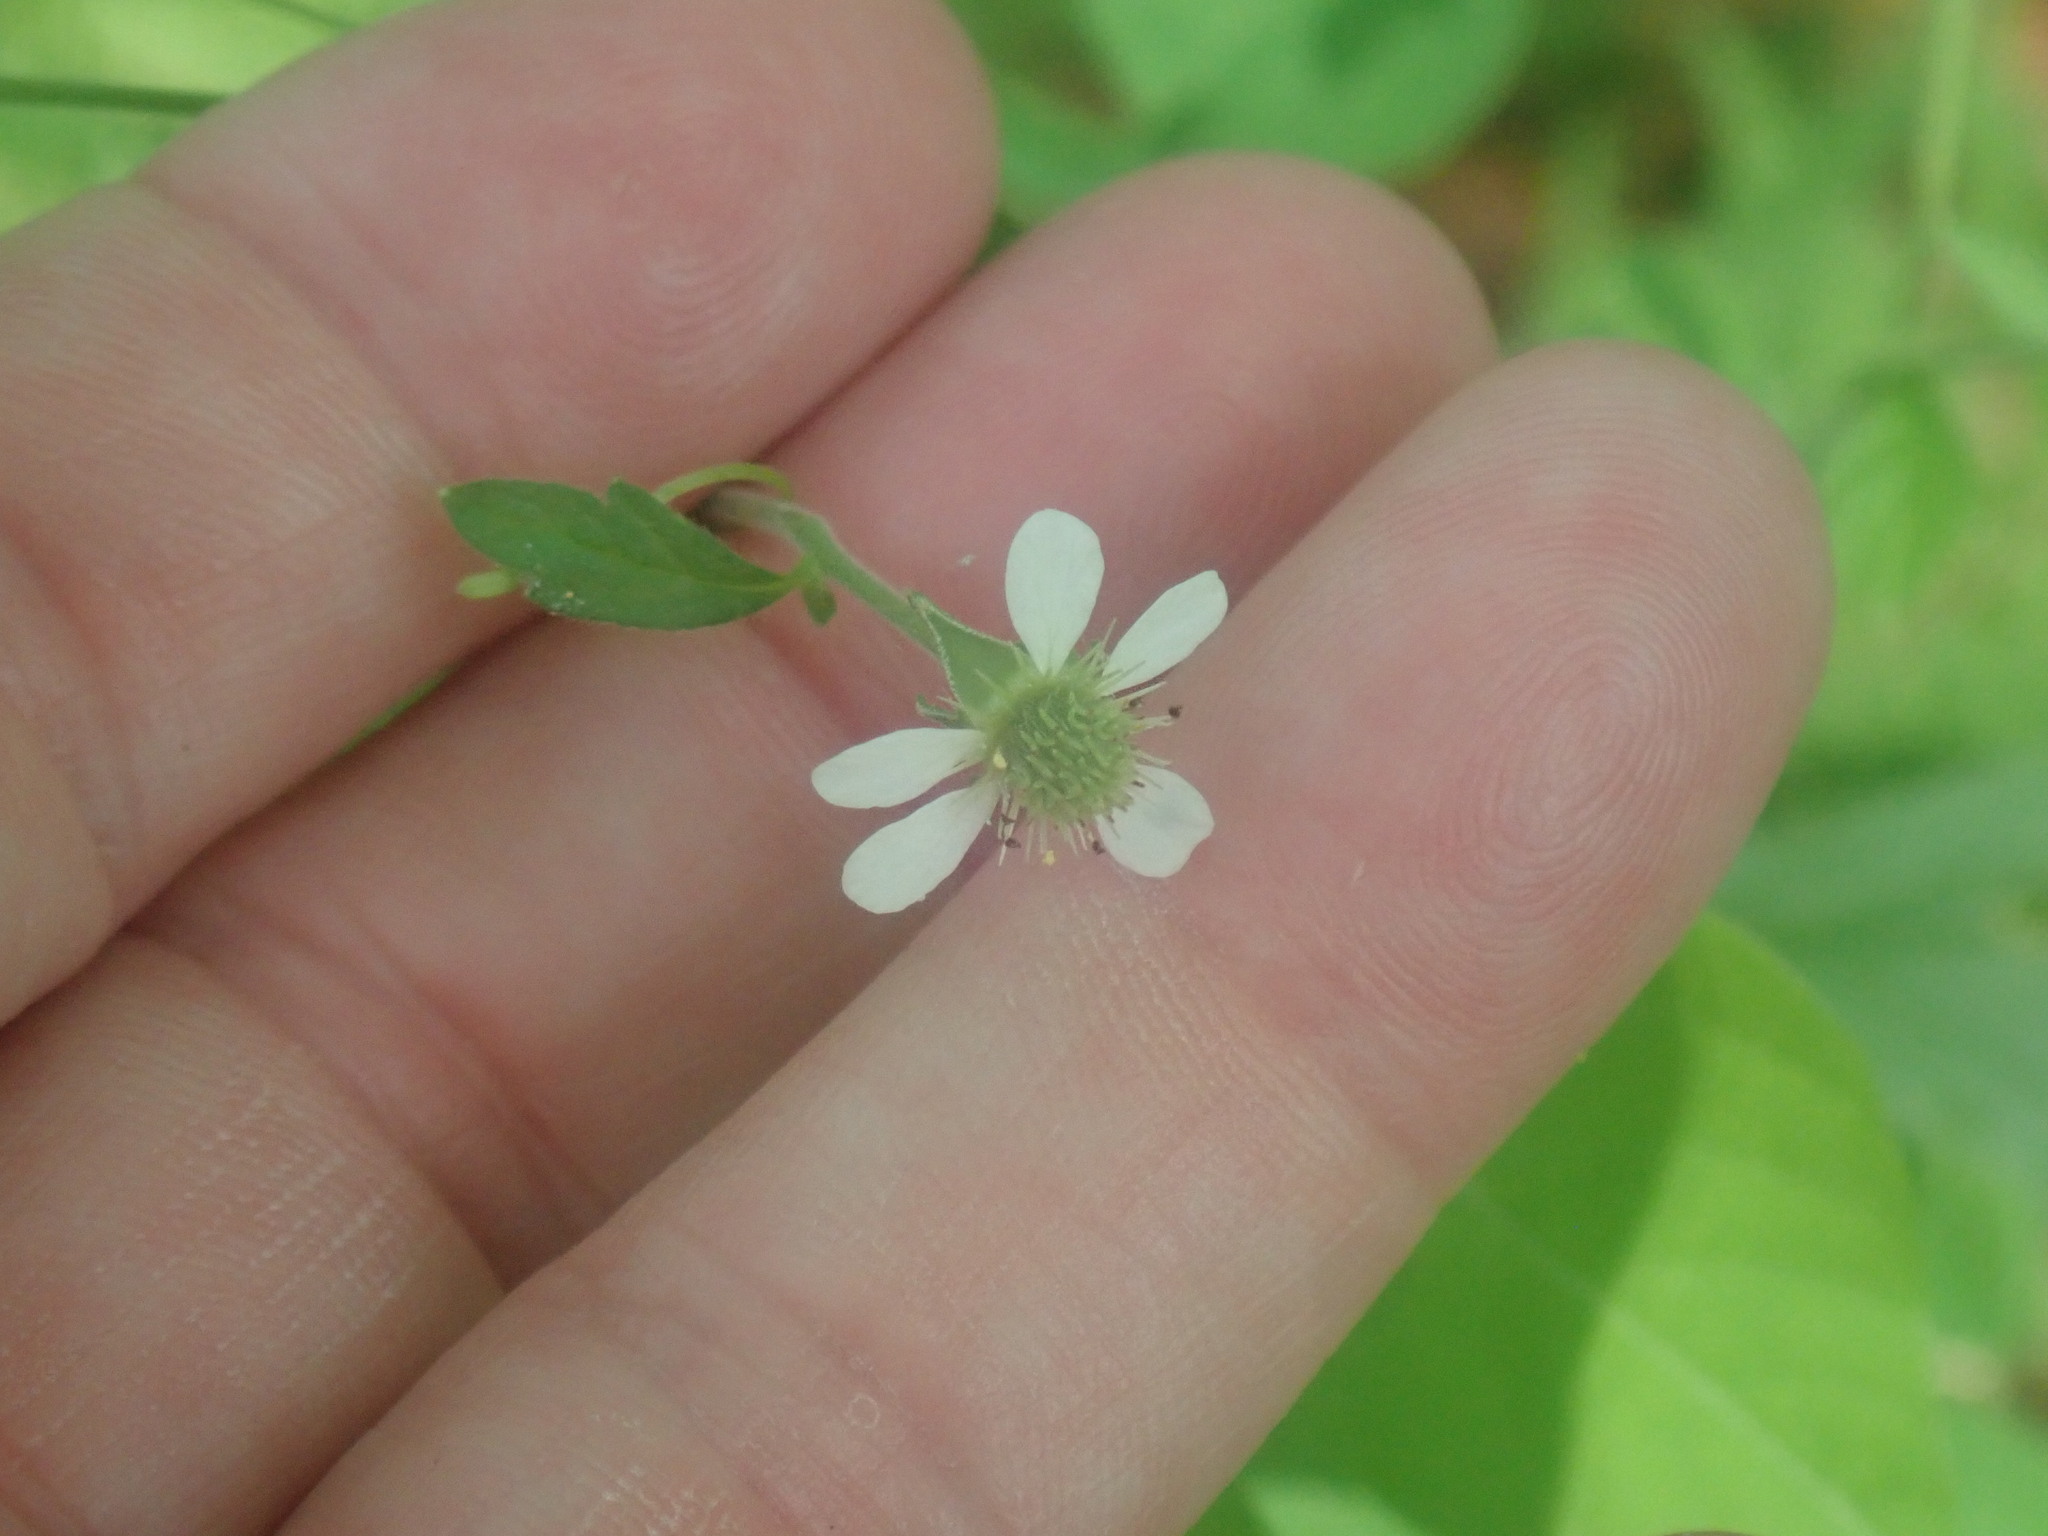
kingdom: Plantae
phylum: Tracheophyta
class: Magnoliopsida
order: Rosales
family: Rosaceae
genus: Geum
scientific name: Geum canadense
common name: White avens
